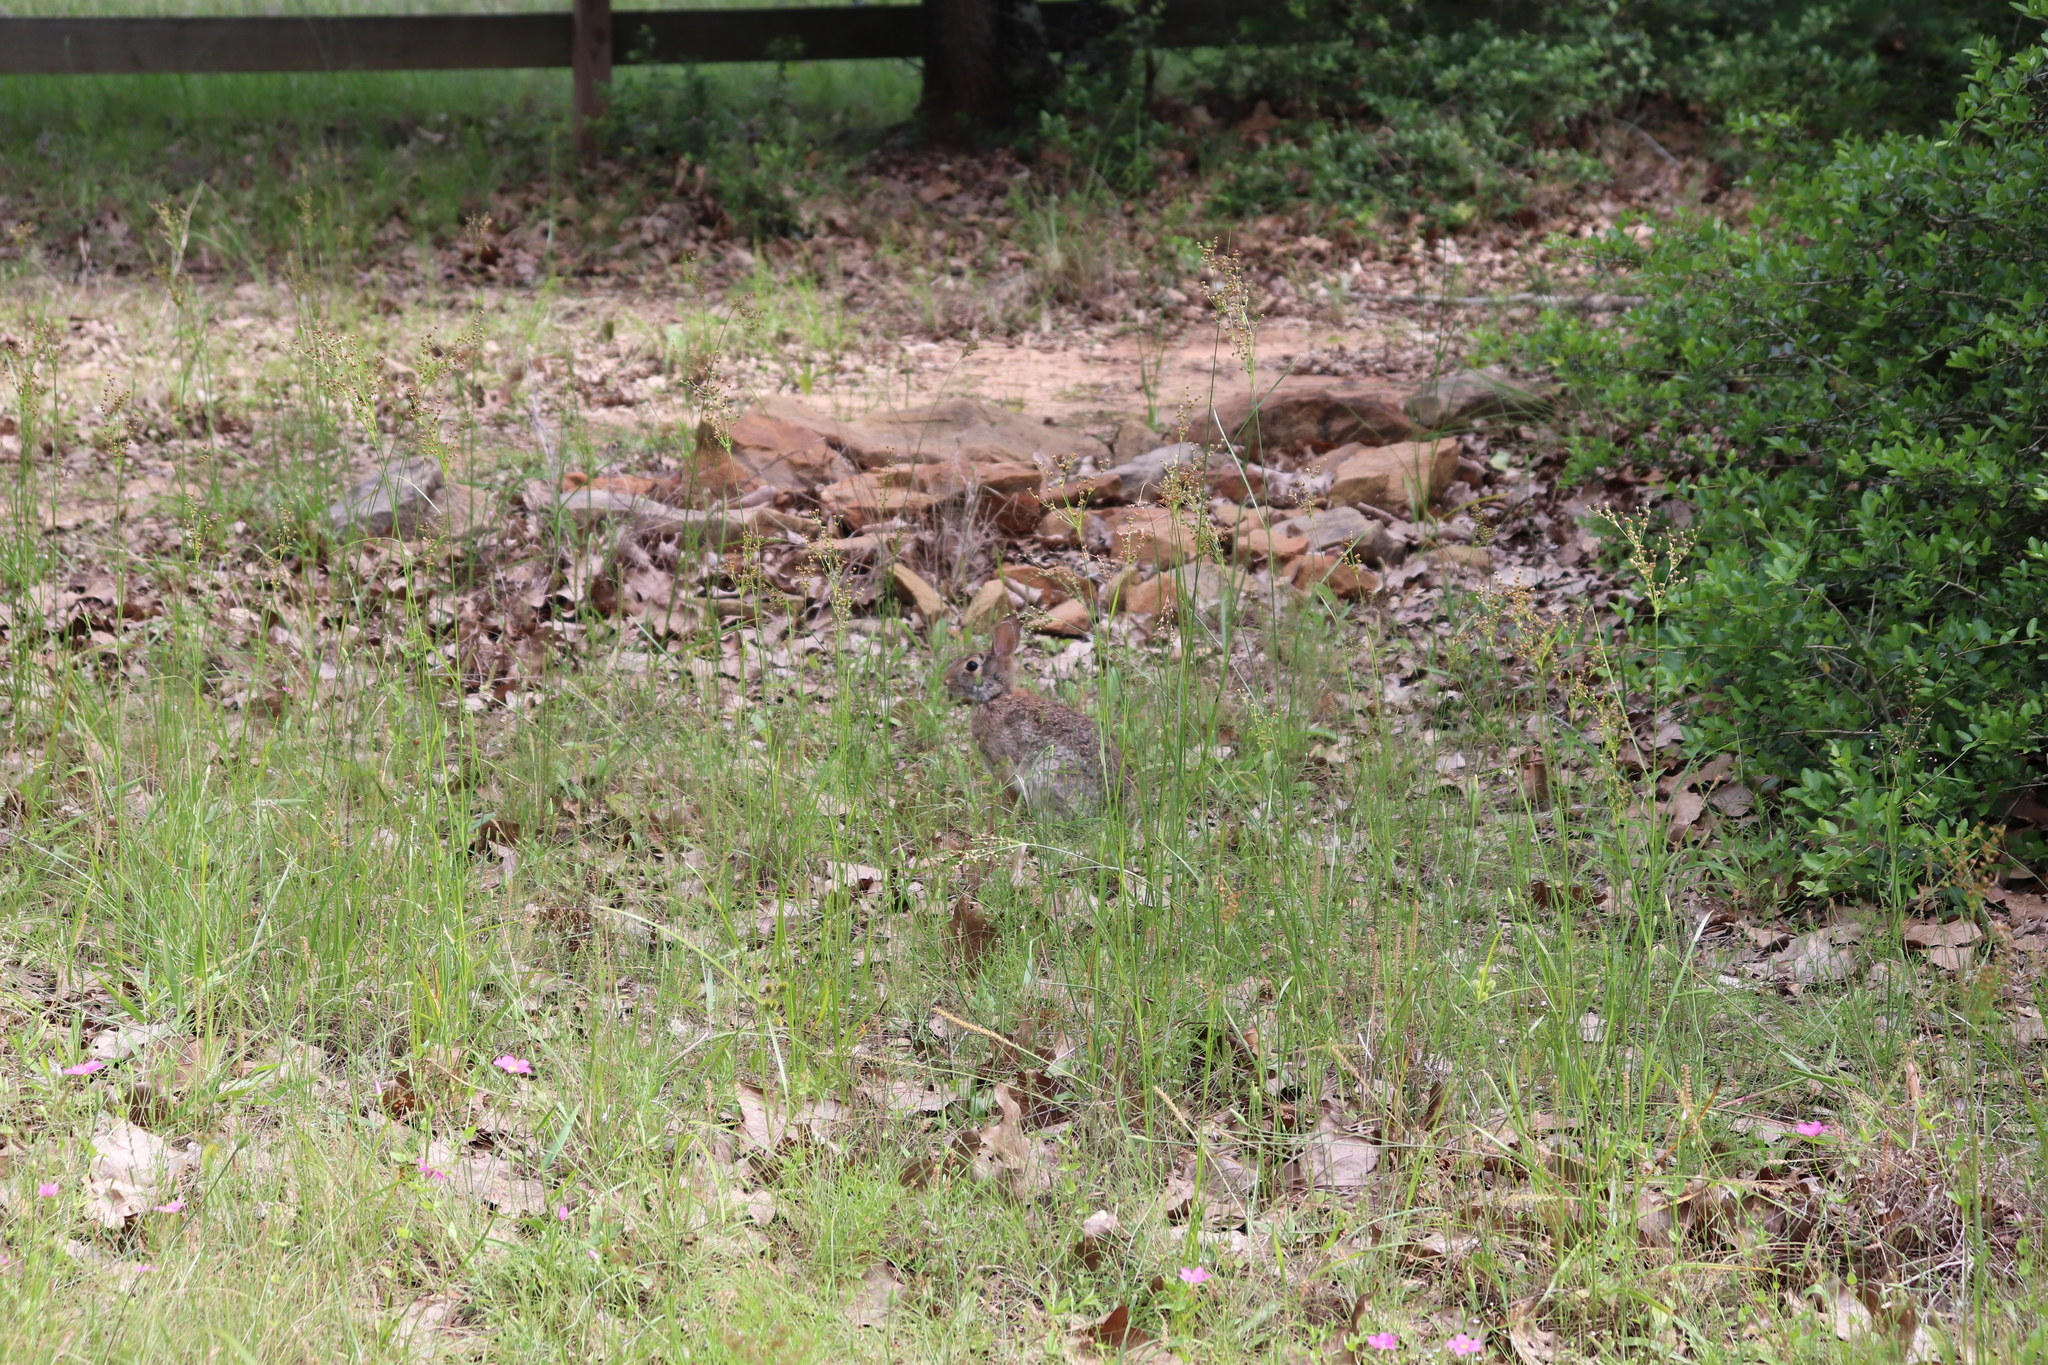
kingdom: Animalia
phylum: Chordata
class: Mammalia
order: Lagomorpha
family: Leporidae
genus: Sylvilagus
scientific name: Sylvilagus floridanus
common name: Eastern cottontail
